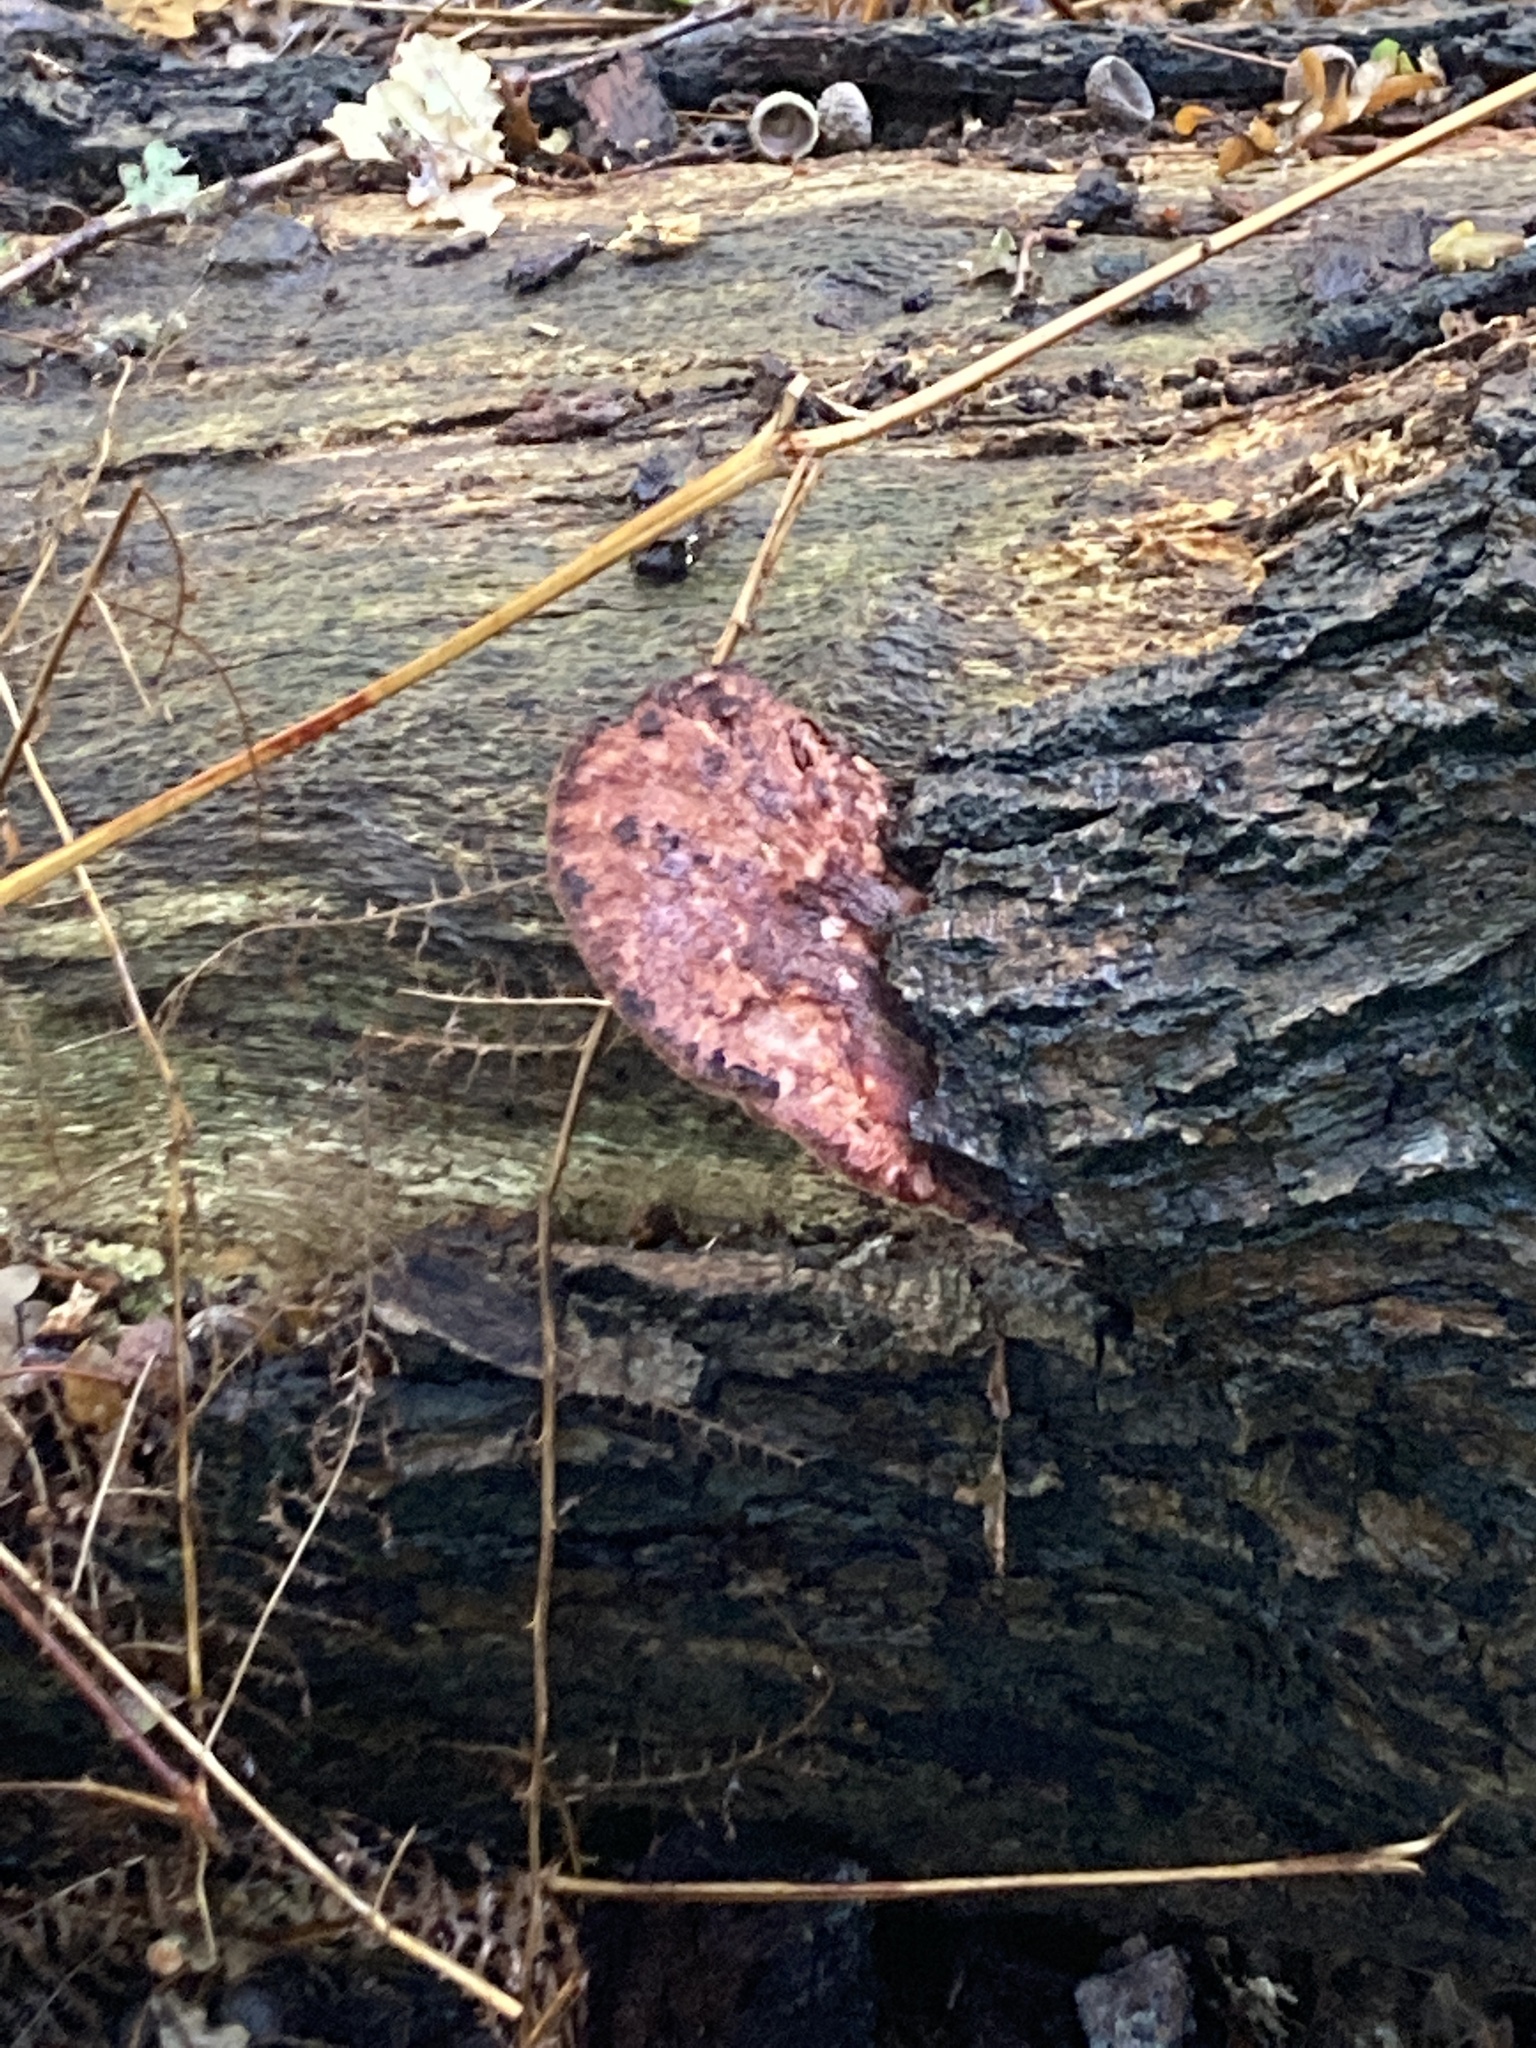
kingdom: Fungi
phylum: Basidiomycota
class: Agaricomycetes
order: Agaricales
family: Fistulinaceae
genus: Fistulina
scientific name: Fistulina hepatica
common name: Beef-steak fungus
